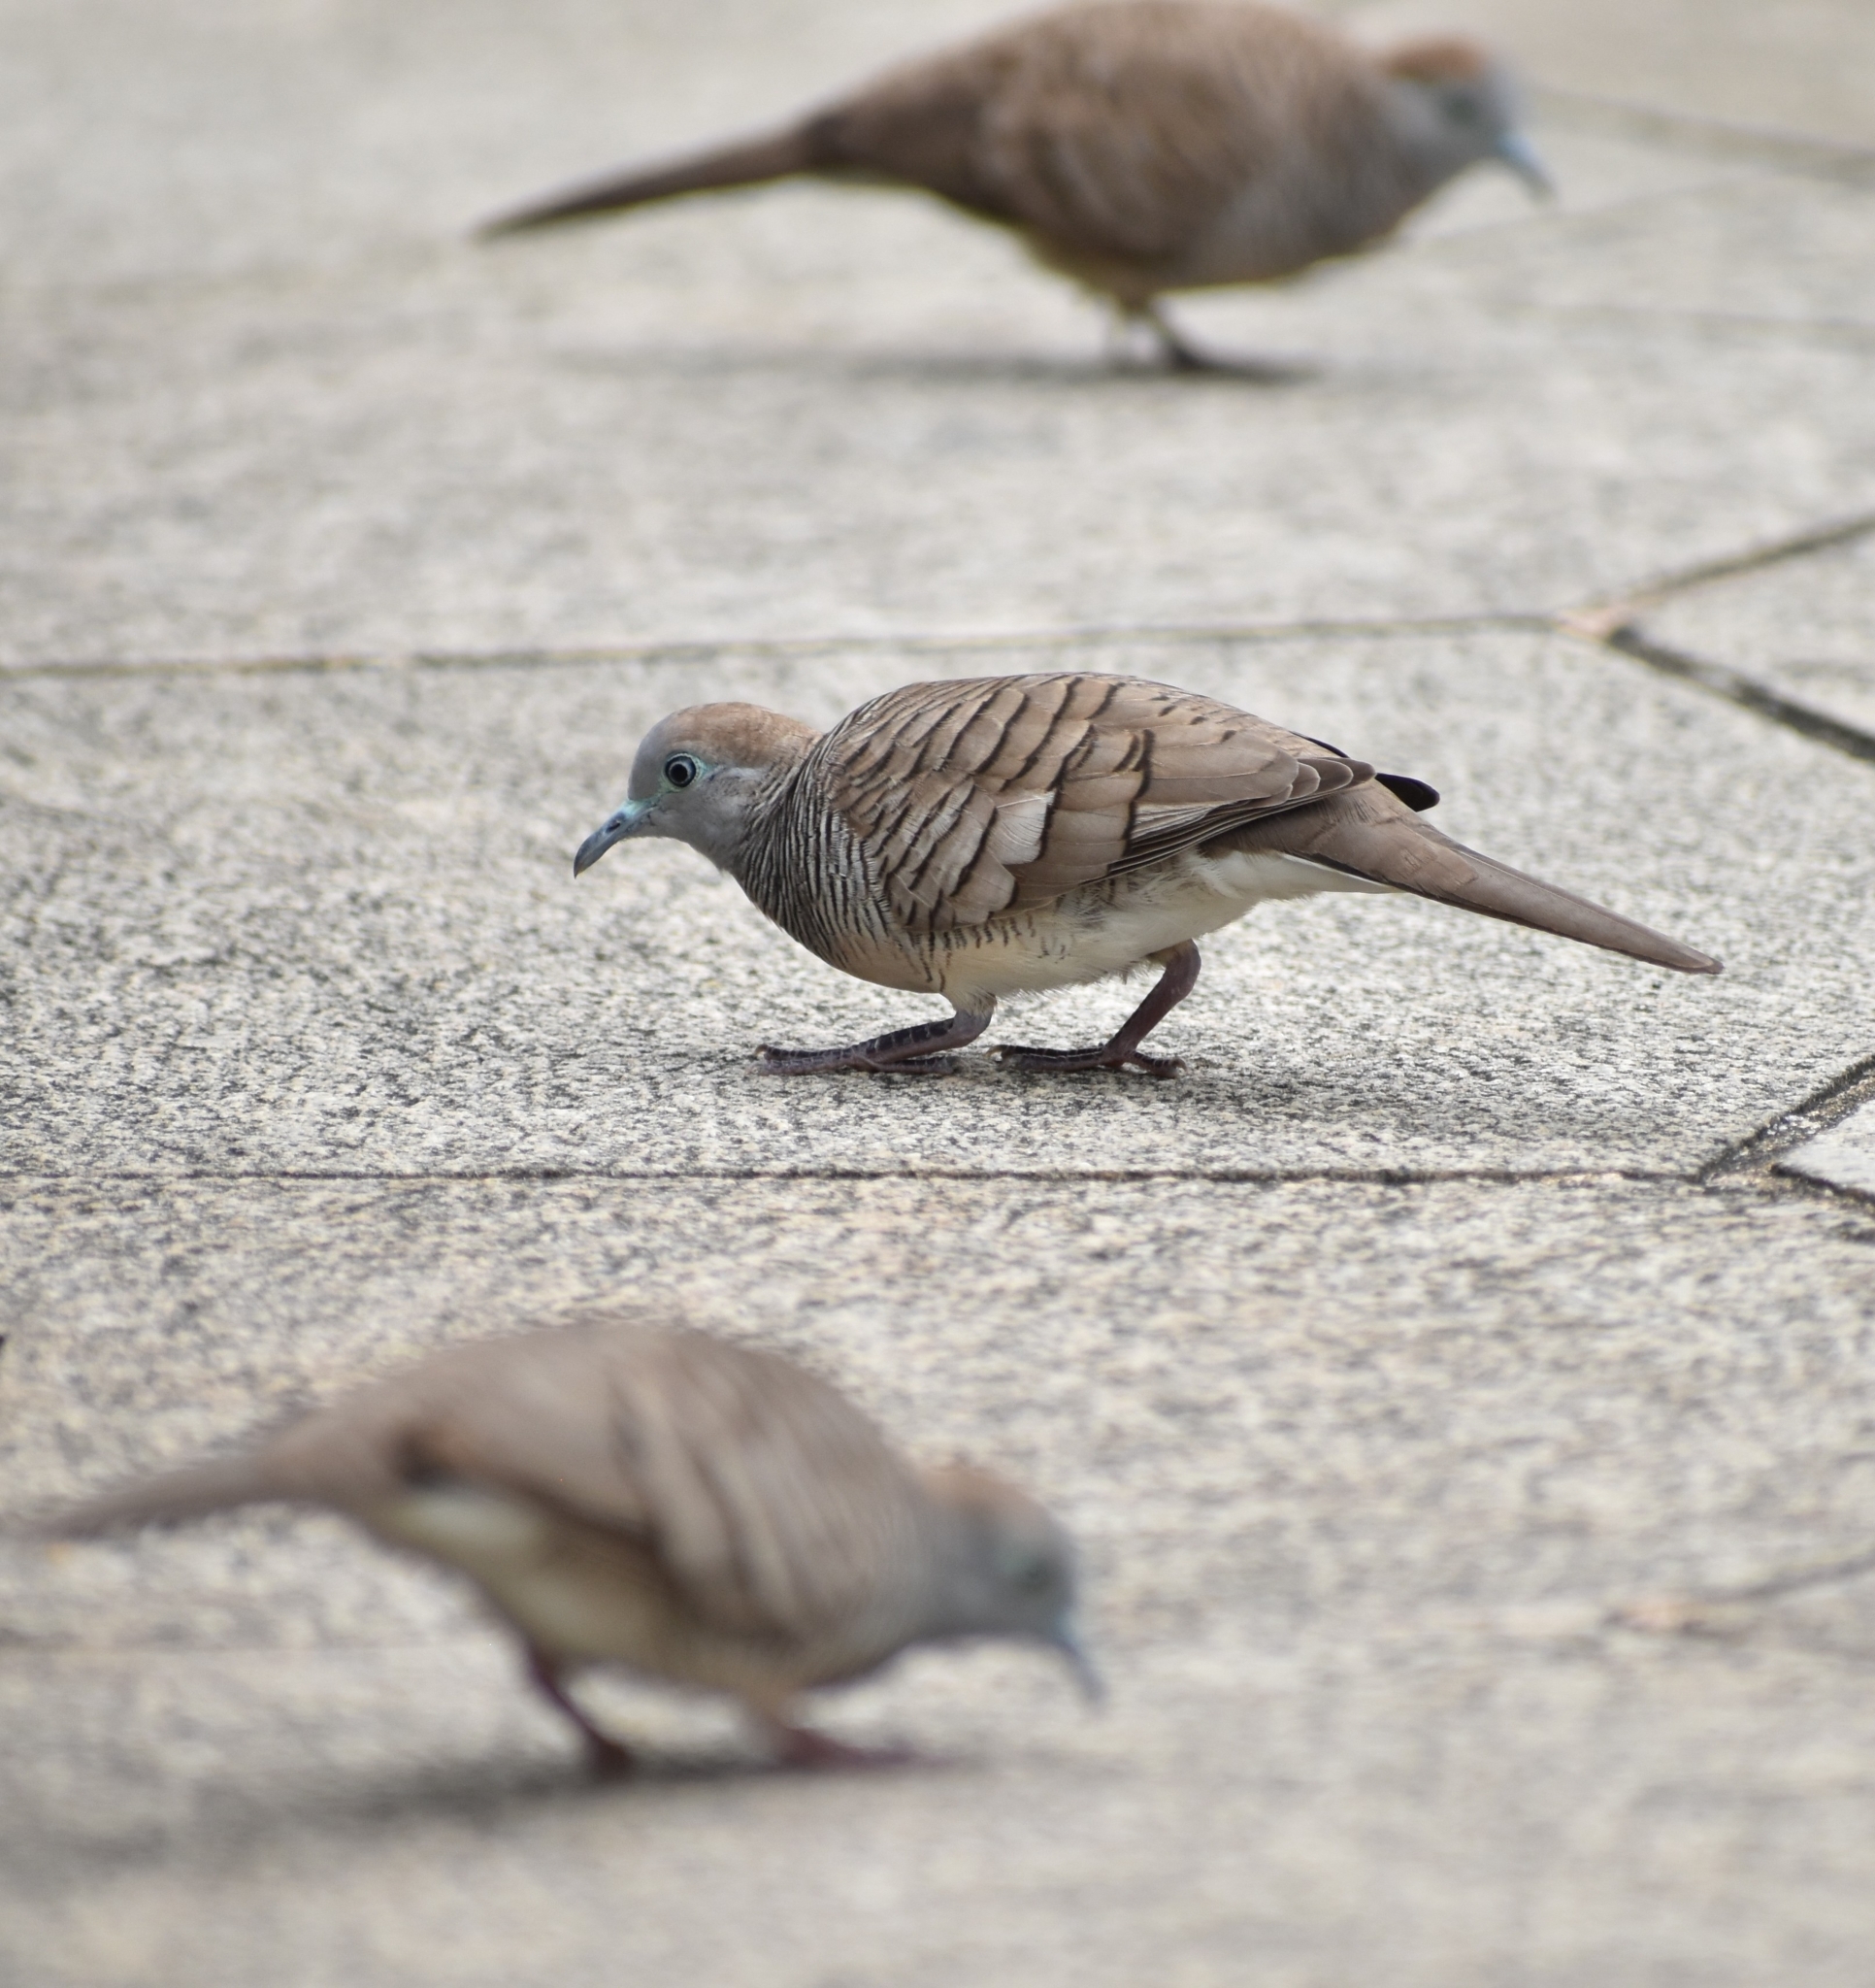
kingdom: Animalia
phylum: Chordata
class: Aves
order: Columbiformes
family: Columbidae
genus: Geopelia
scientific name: Geopelia striata
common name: Zebra dove
